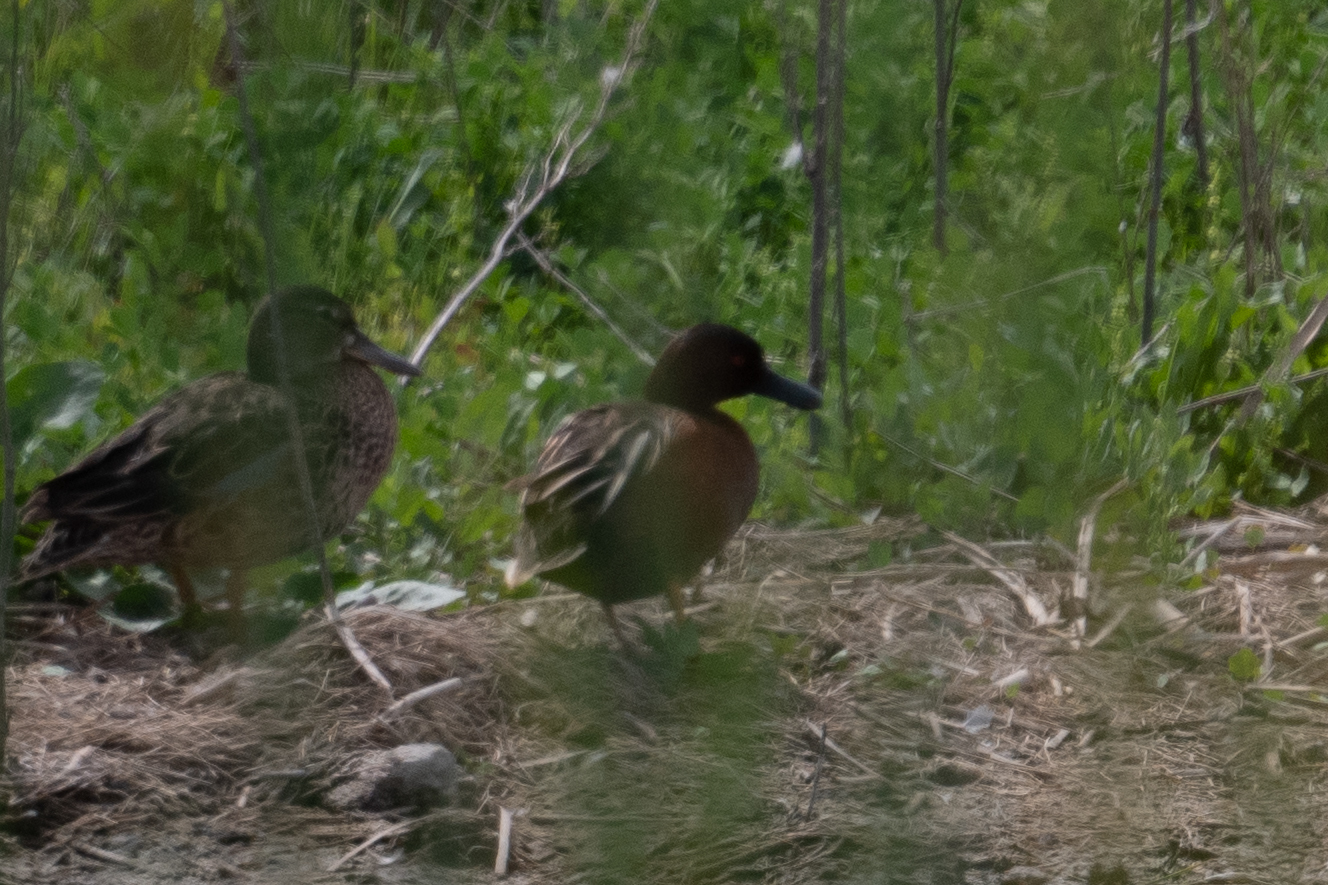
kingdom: Animalia
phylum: Chordata
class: Aves
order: Anseriformes
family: Anatidae
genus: Spatula
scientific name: Spatula cyanoptera
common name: Cinnamon teal
